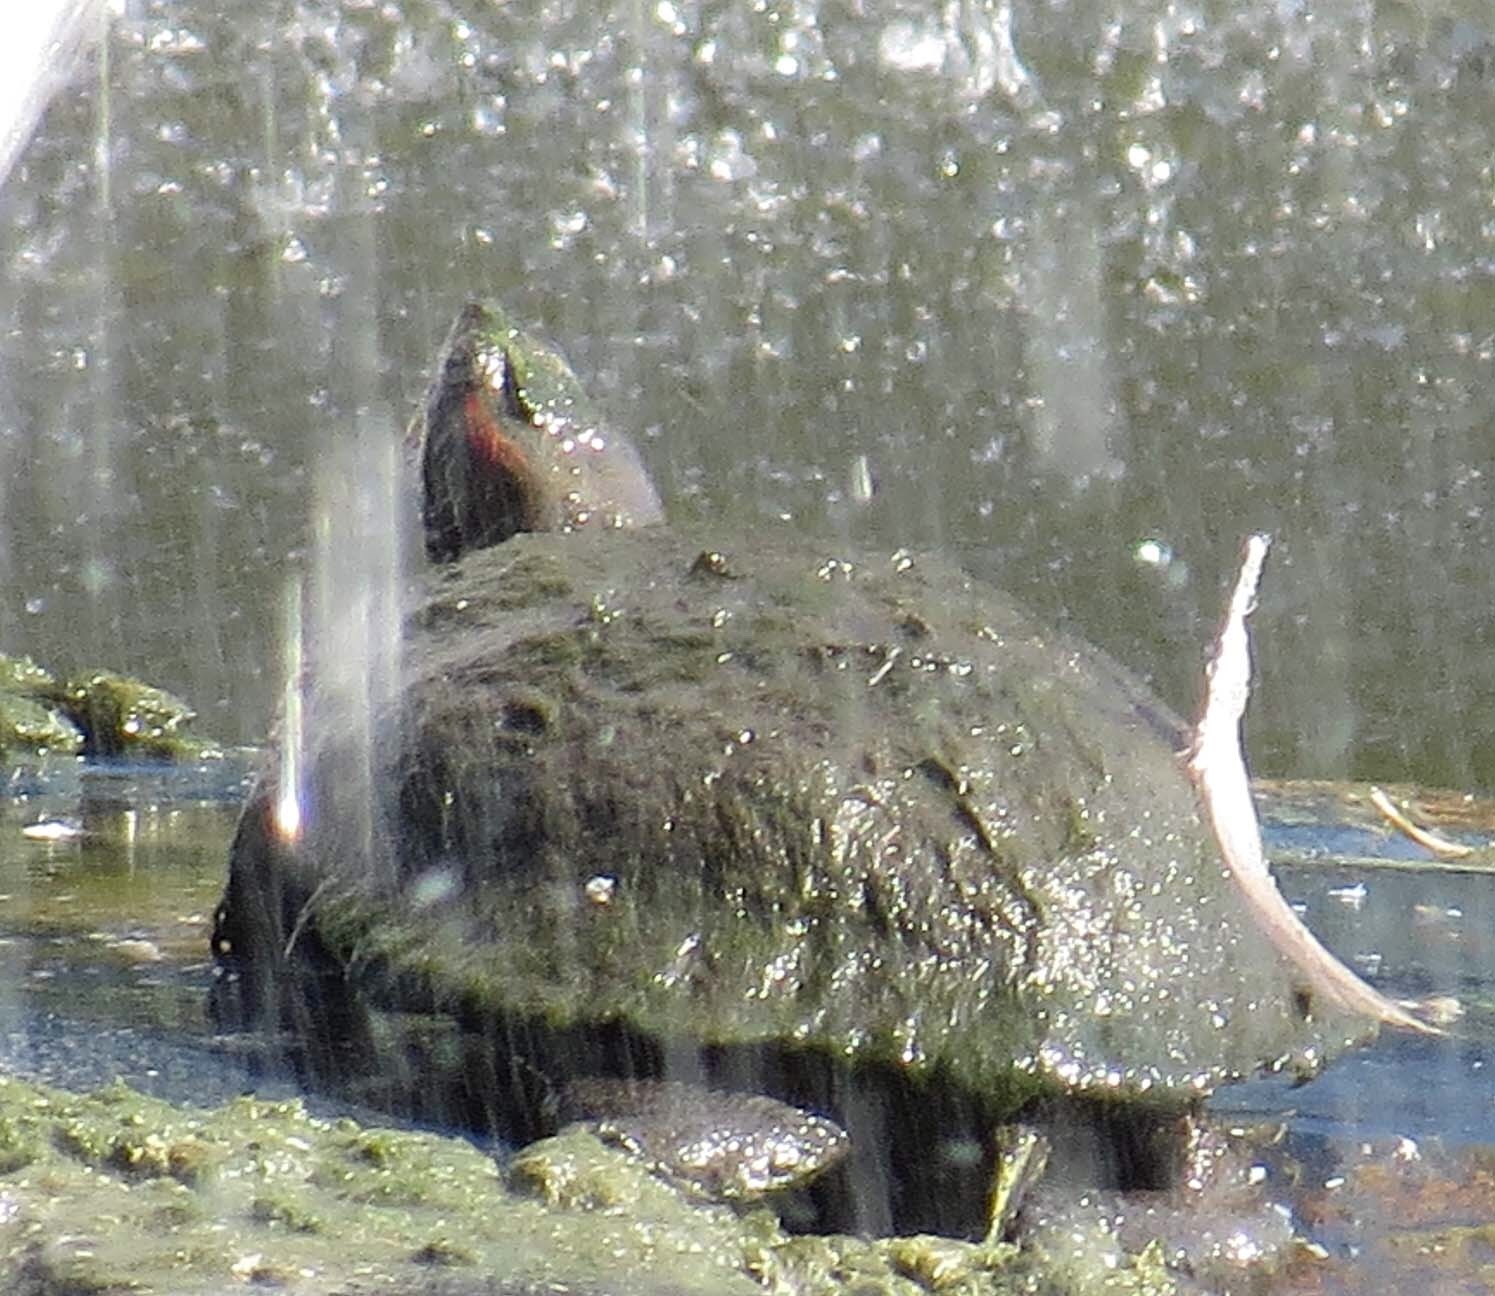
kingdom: Animalia
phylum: Chordata
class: Testudines
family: Emydidae
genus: Trachemys
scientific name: Trachemys scripta
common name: Slider
